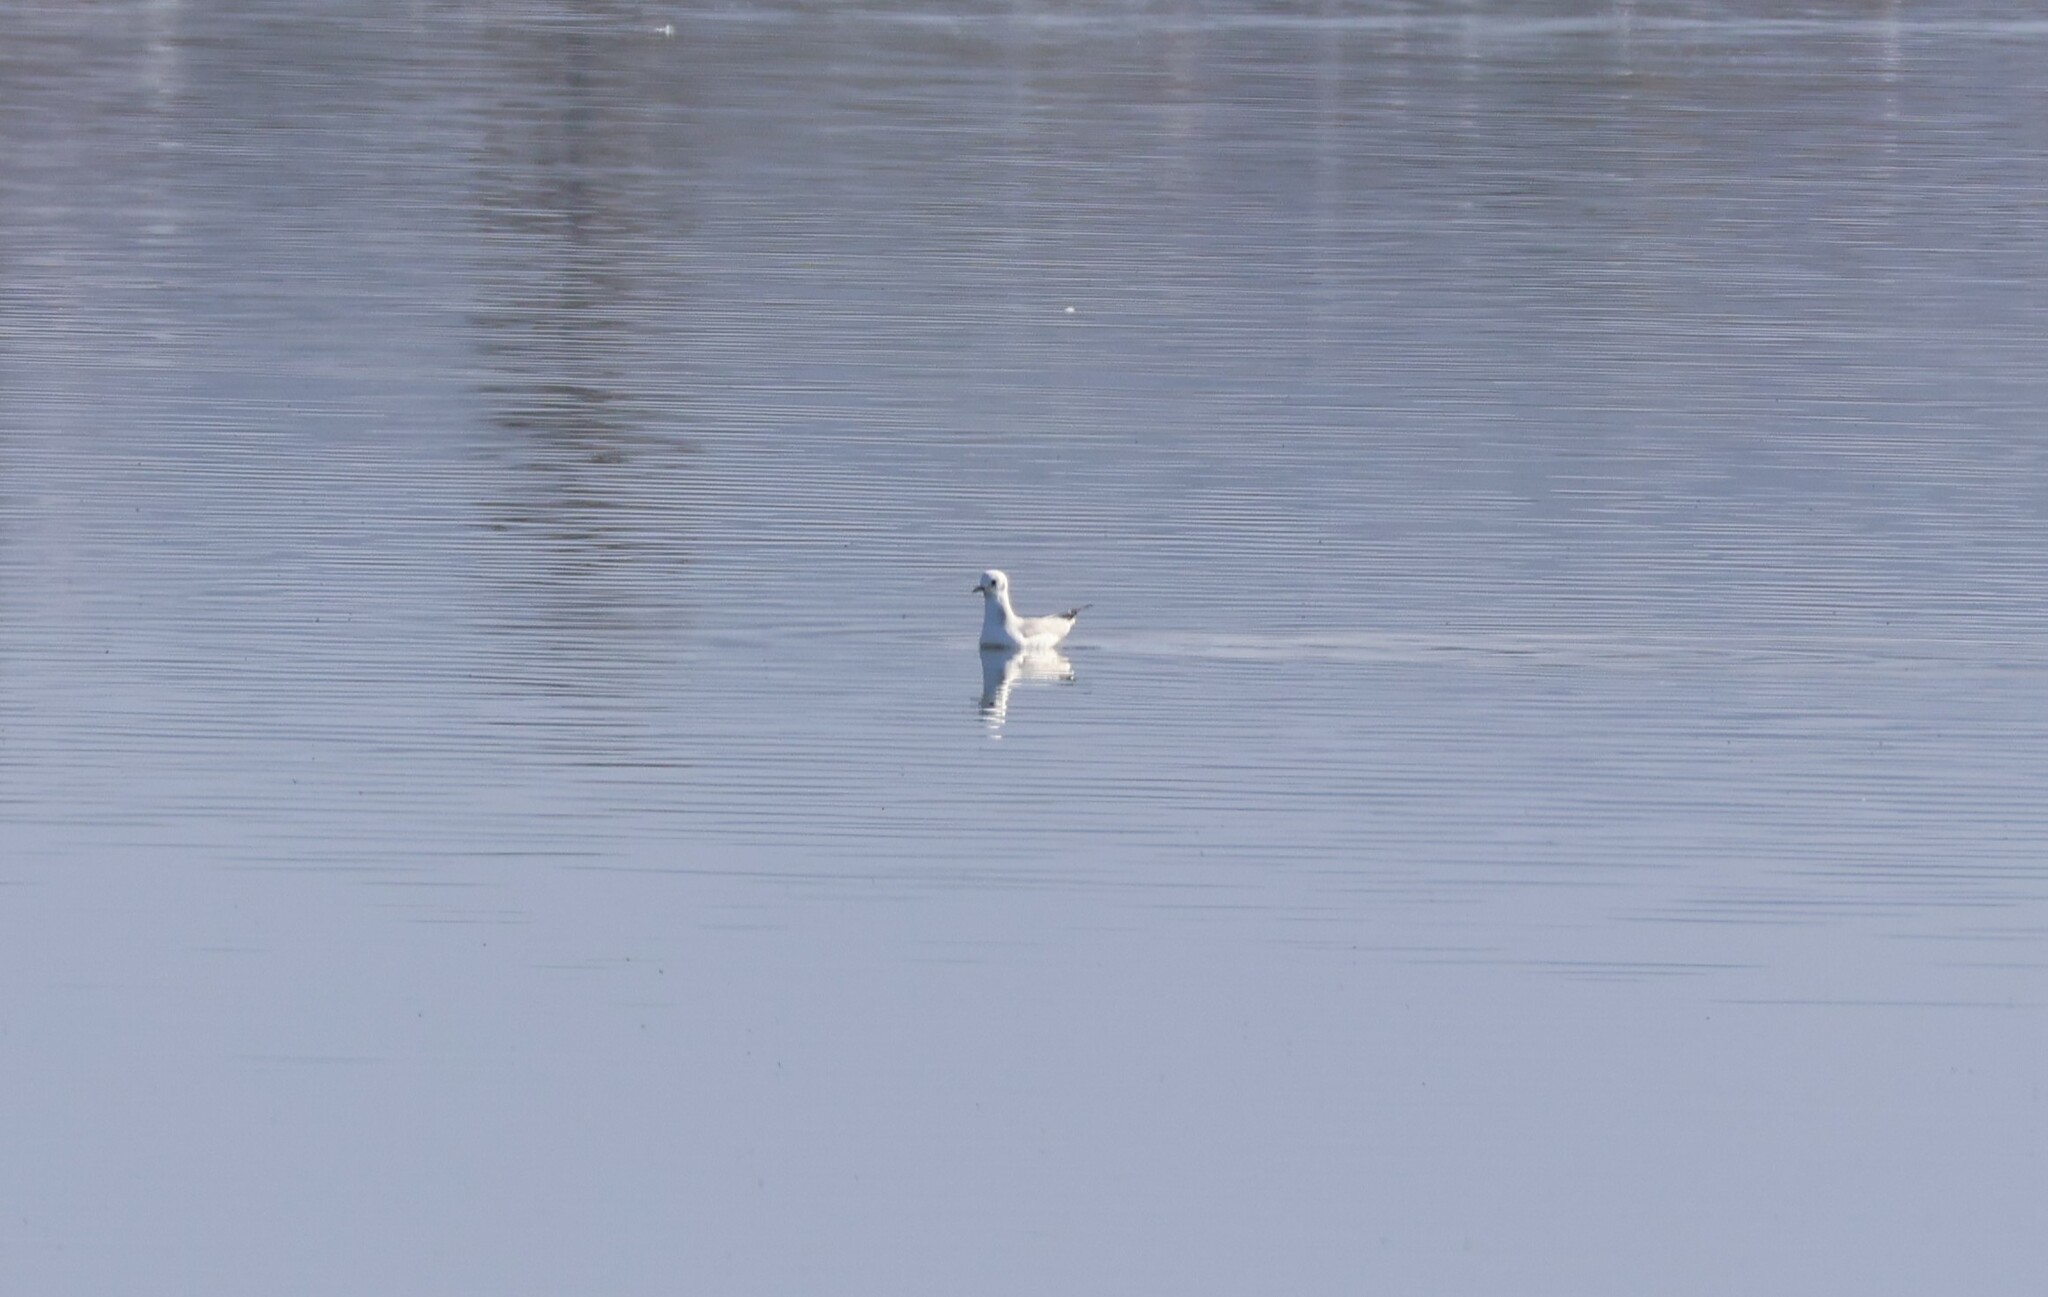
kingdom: Animalia
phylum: Chordata
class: Aves
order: Charadriiformes
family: Laridae
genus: Chroicocephalus
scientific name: Chroicocephalus philadelphia
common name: Bonaparte's gull
